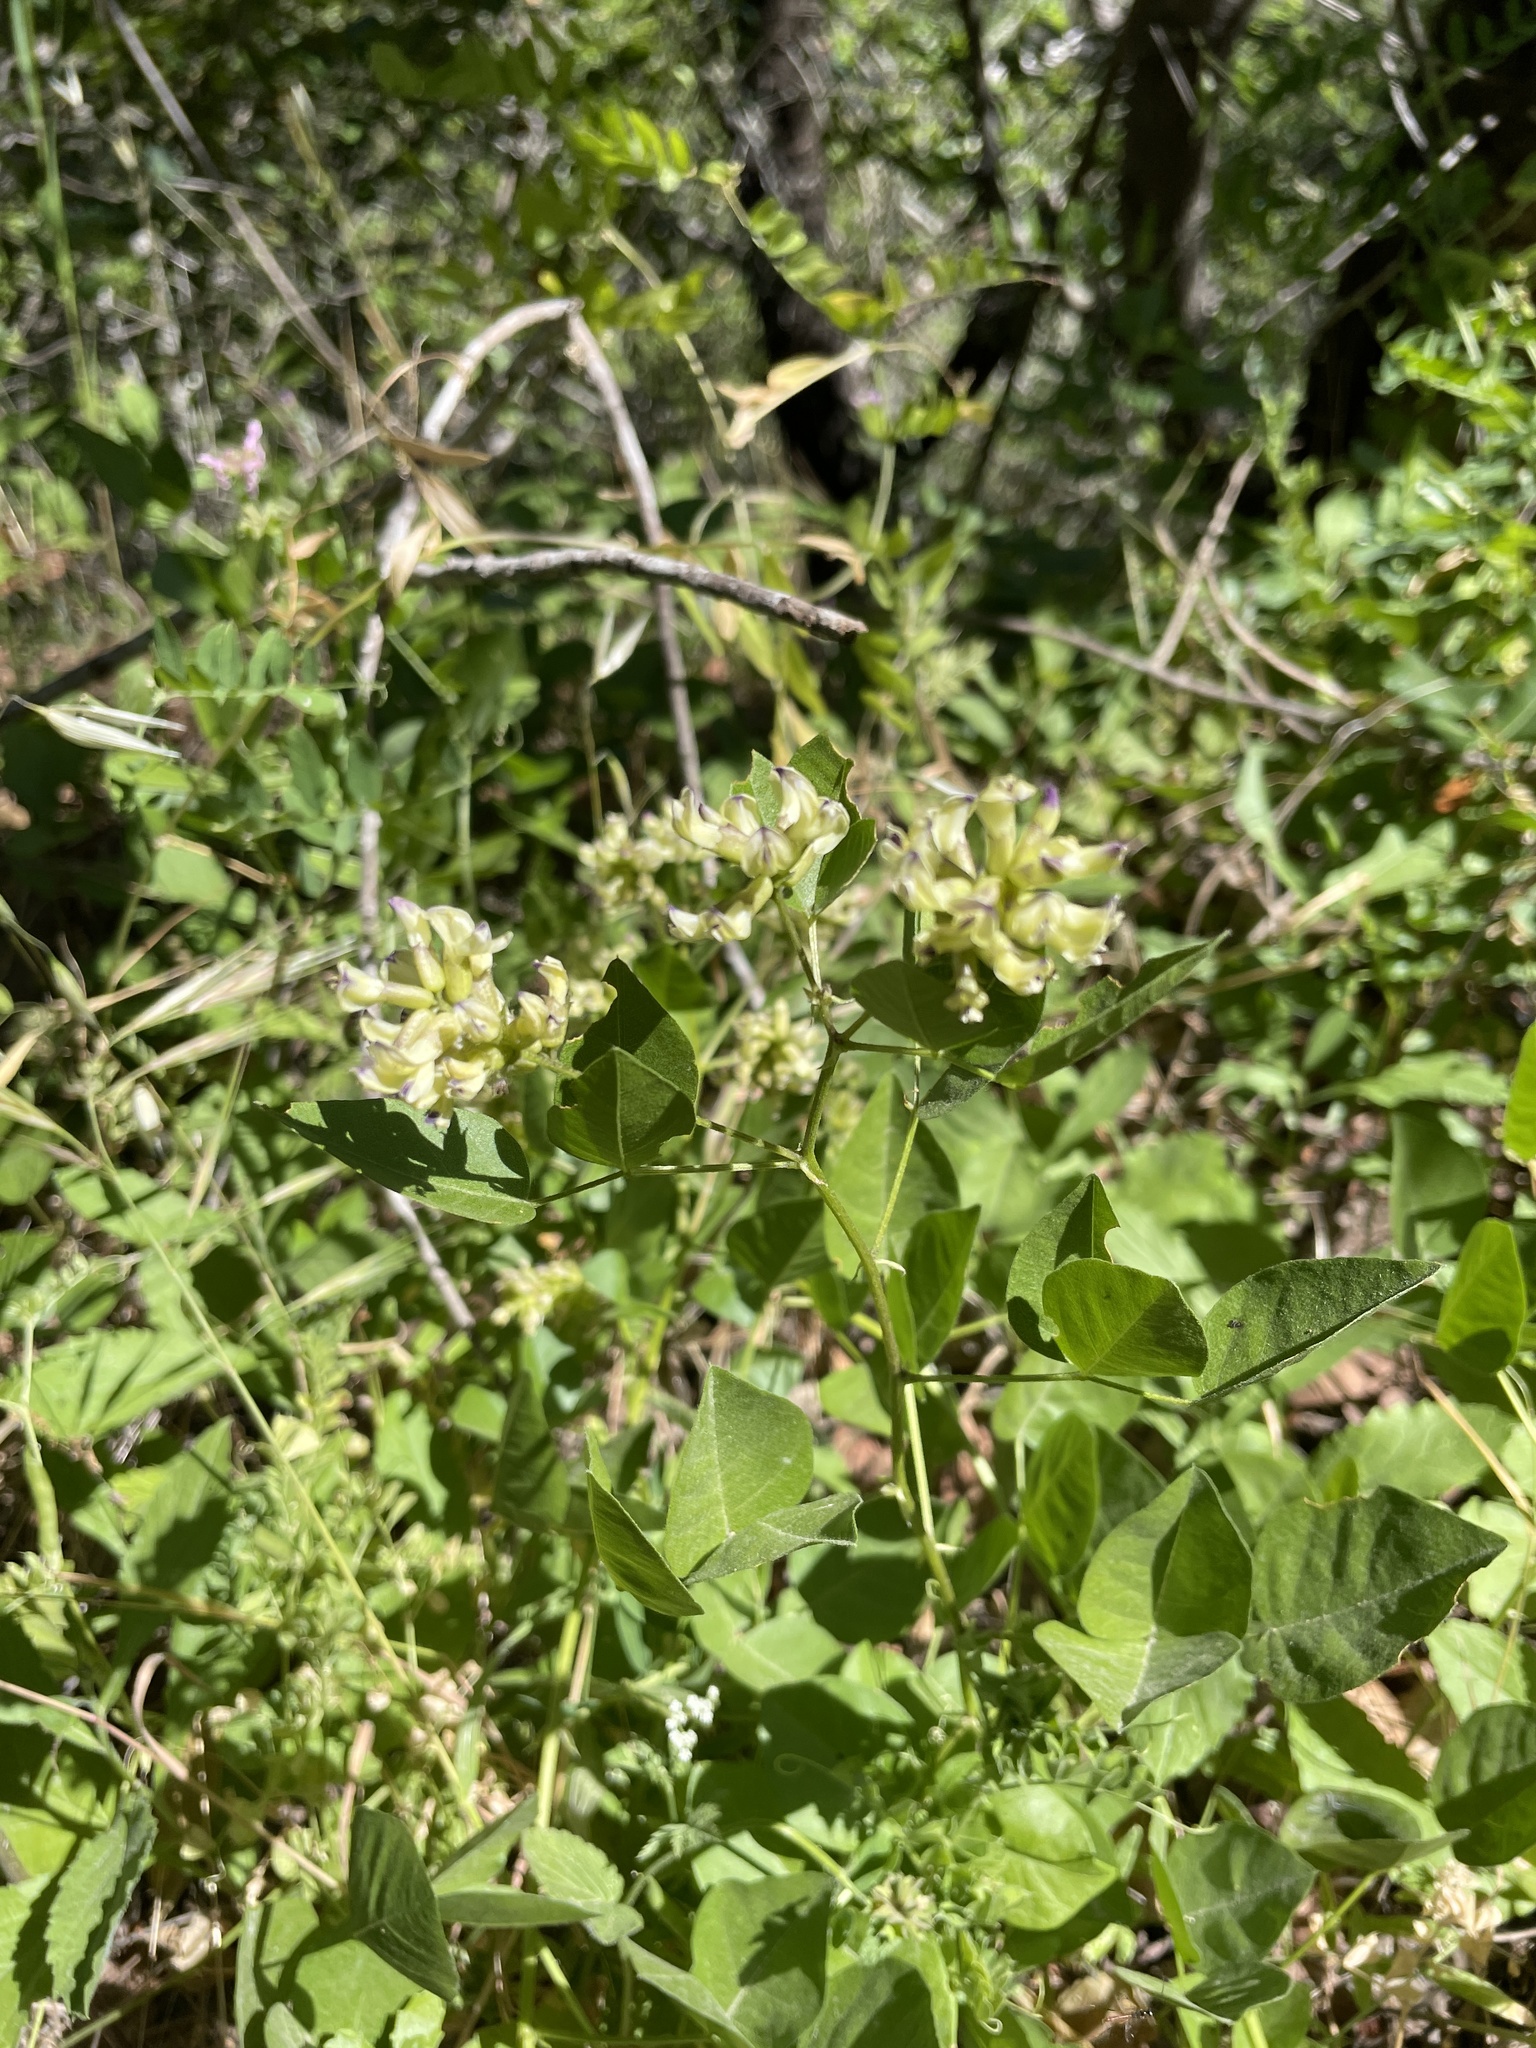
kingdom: Plantae
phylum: Tracheophyta
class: Magnoliopsida
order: Fabales
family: Fabaceae
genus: Rupertia
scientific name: Rupertia physodes
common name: California-tea
